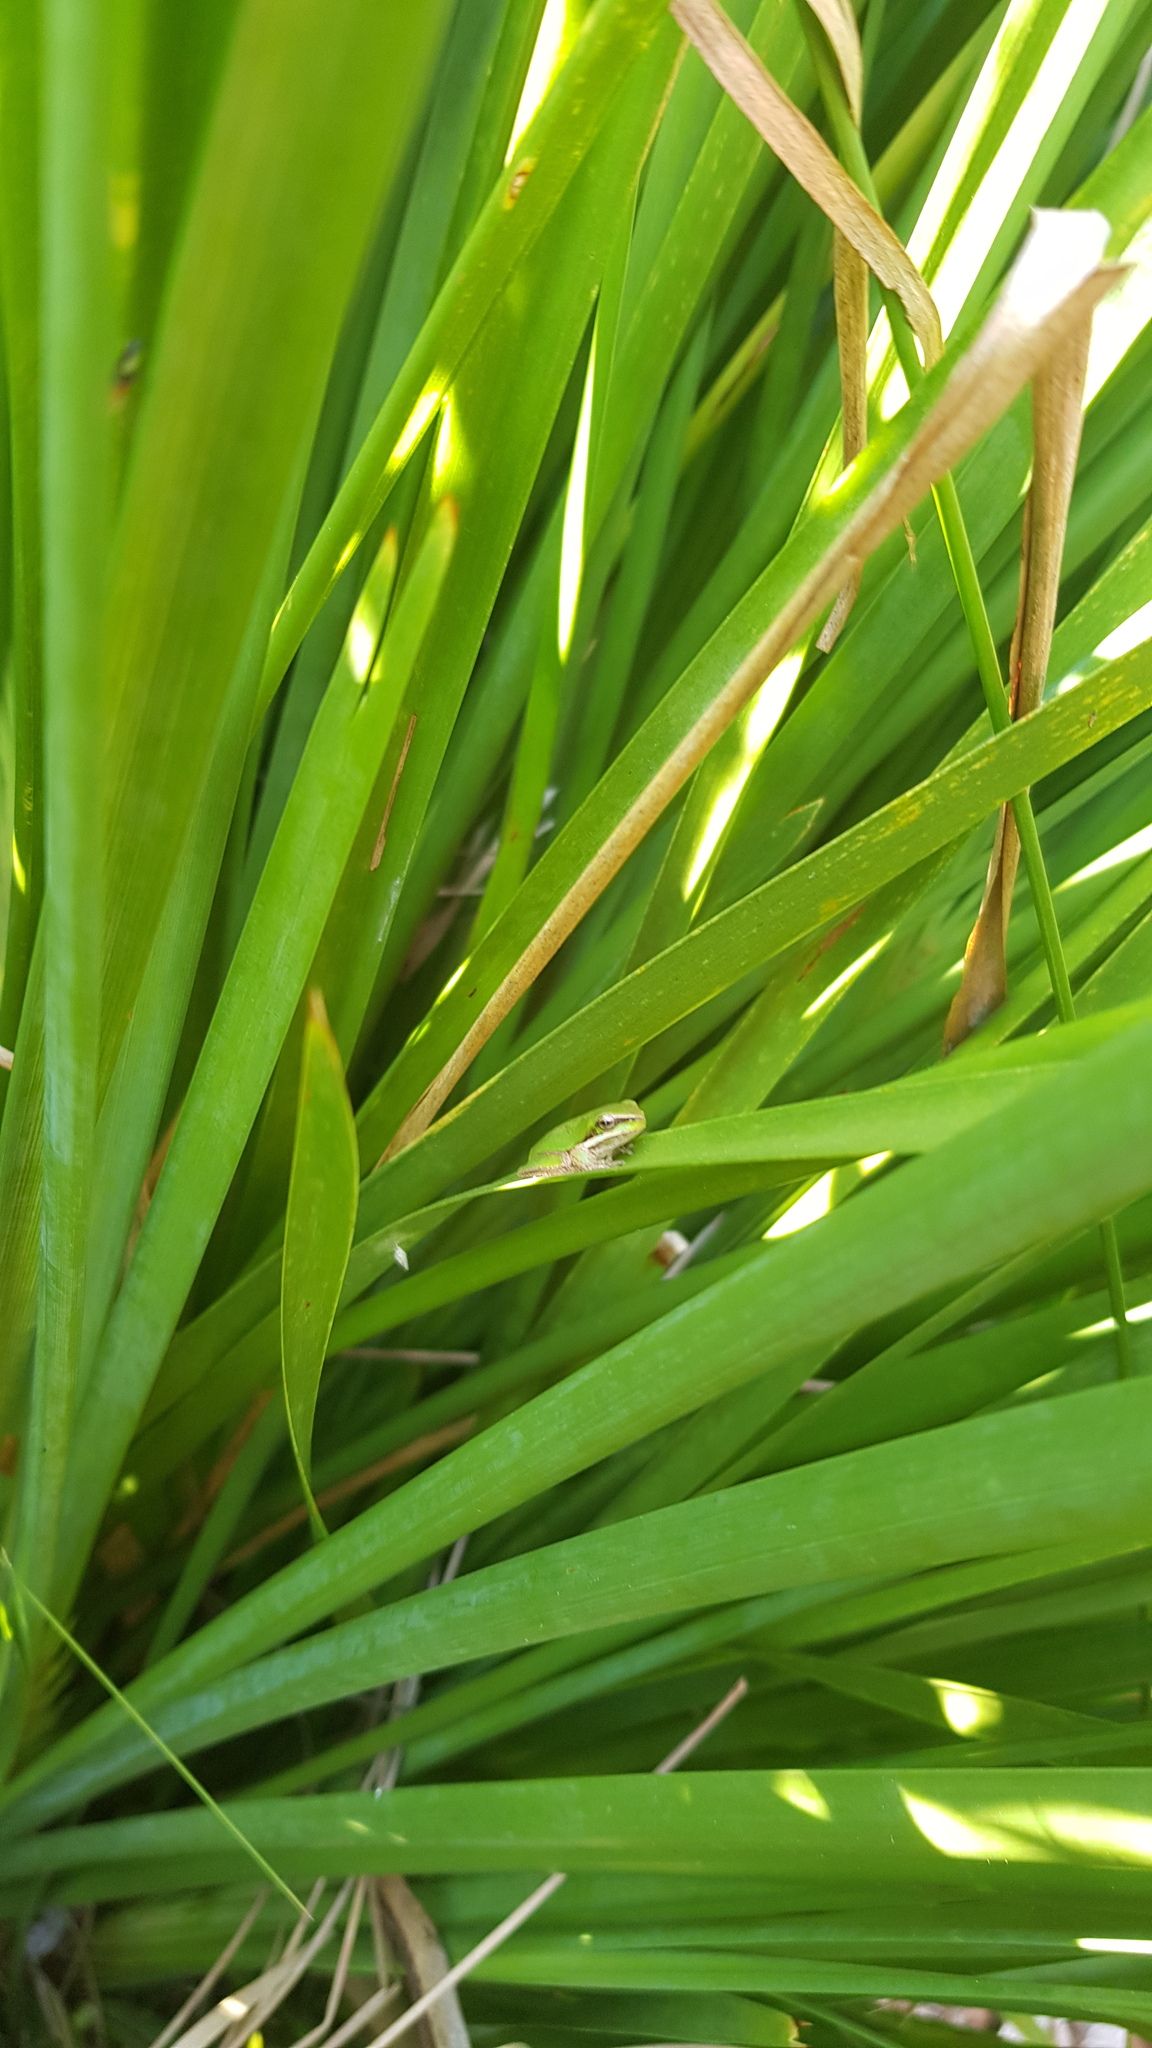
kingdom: Animalia
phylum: Chordata
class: Amphibia
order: Anura
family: Pelodryadidae
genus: Litoria
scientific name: Litoria fallax
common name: Eastern dwarf treefrog
